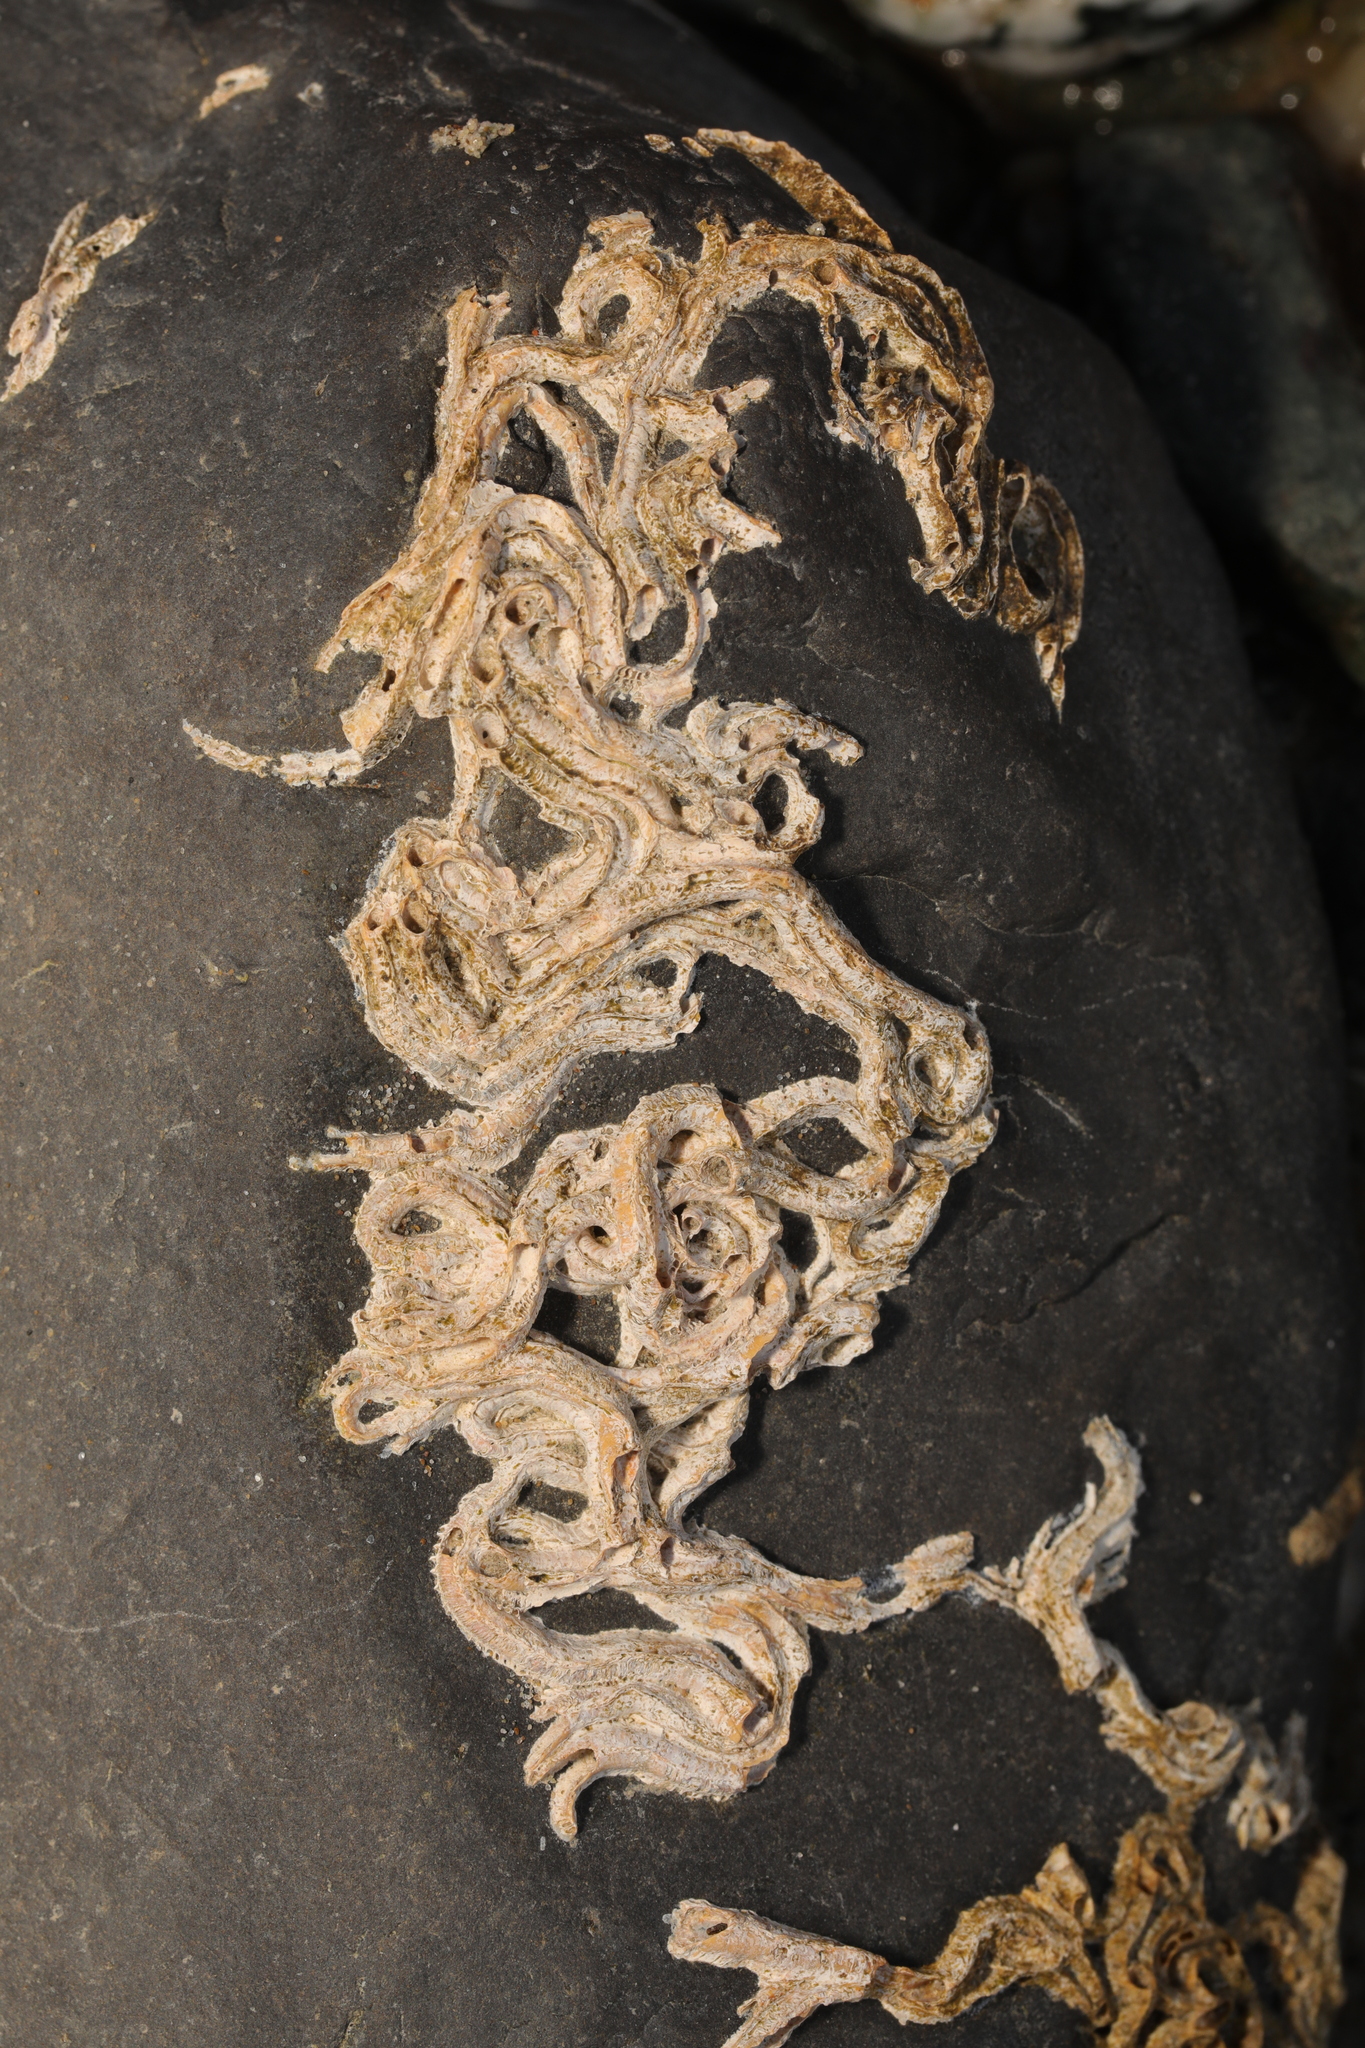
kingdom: Animalia
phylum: Annelida
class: Polychaeta
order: Sabellida
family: Serpulidae
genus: Spirobranchus
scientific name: Spirobranchus triqueter
